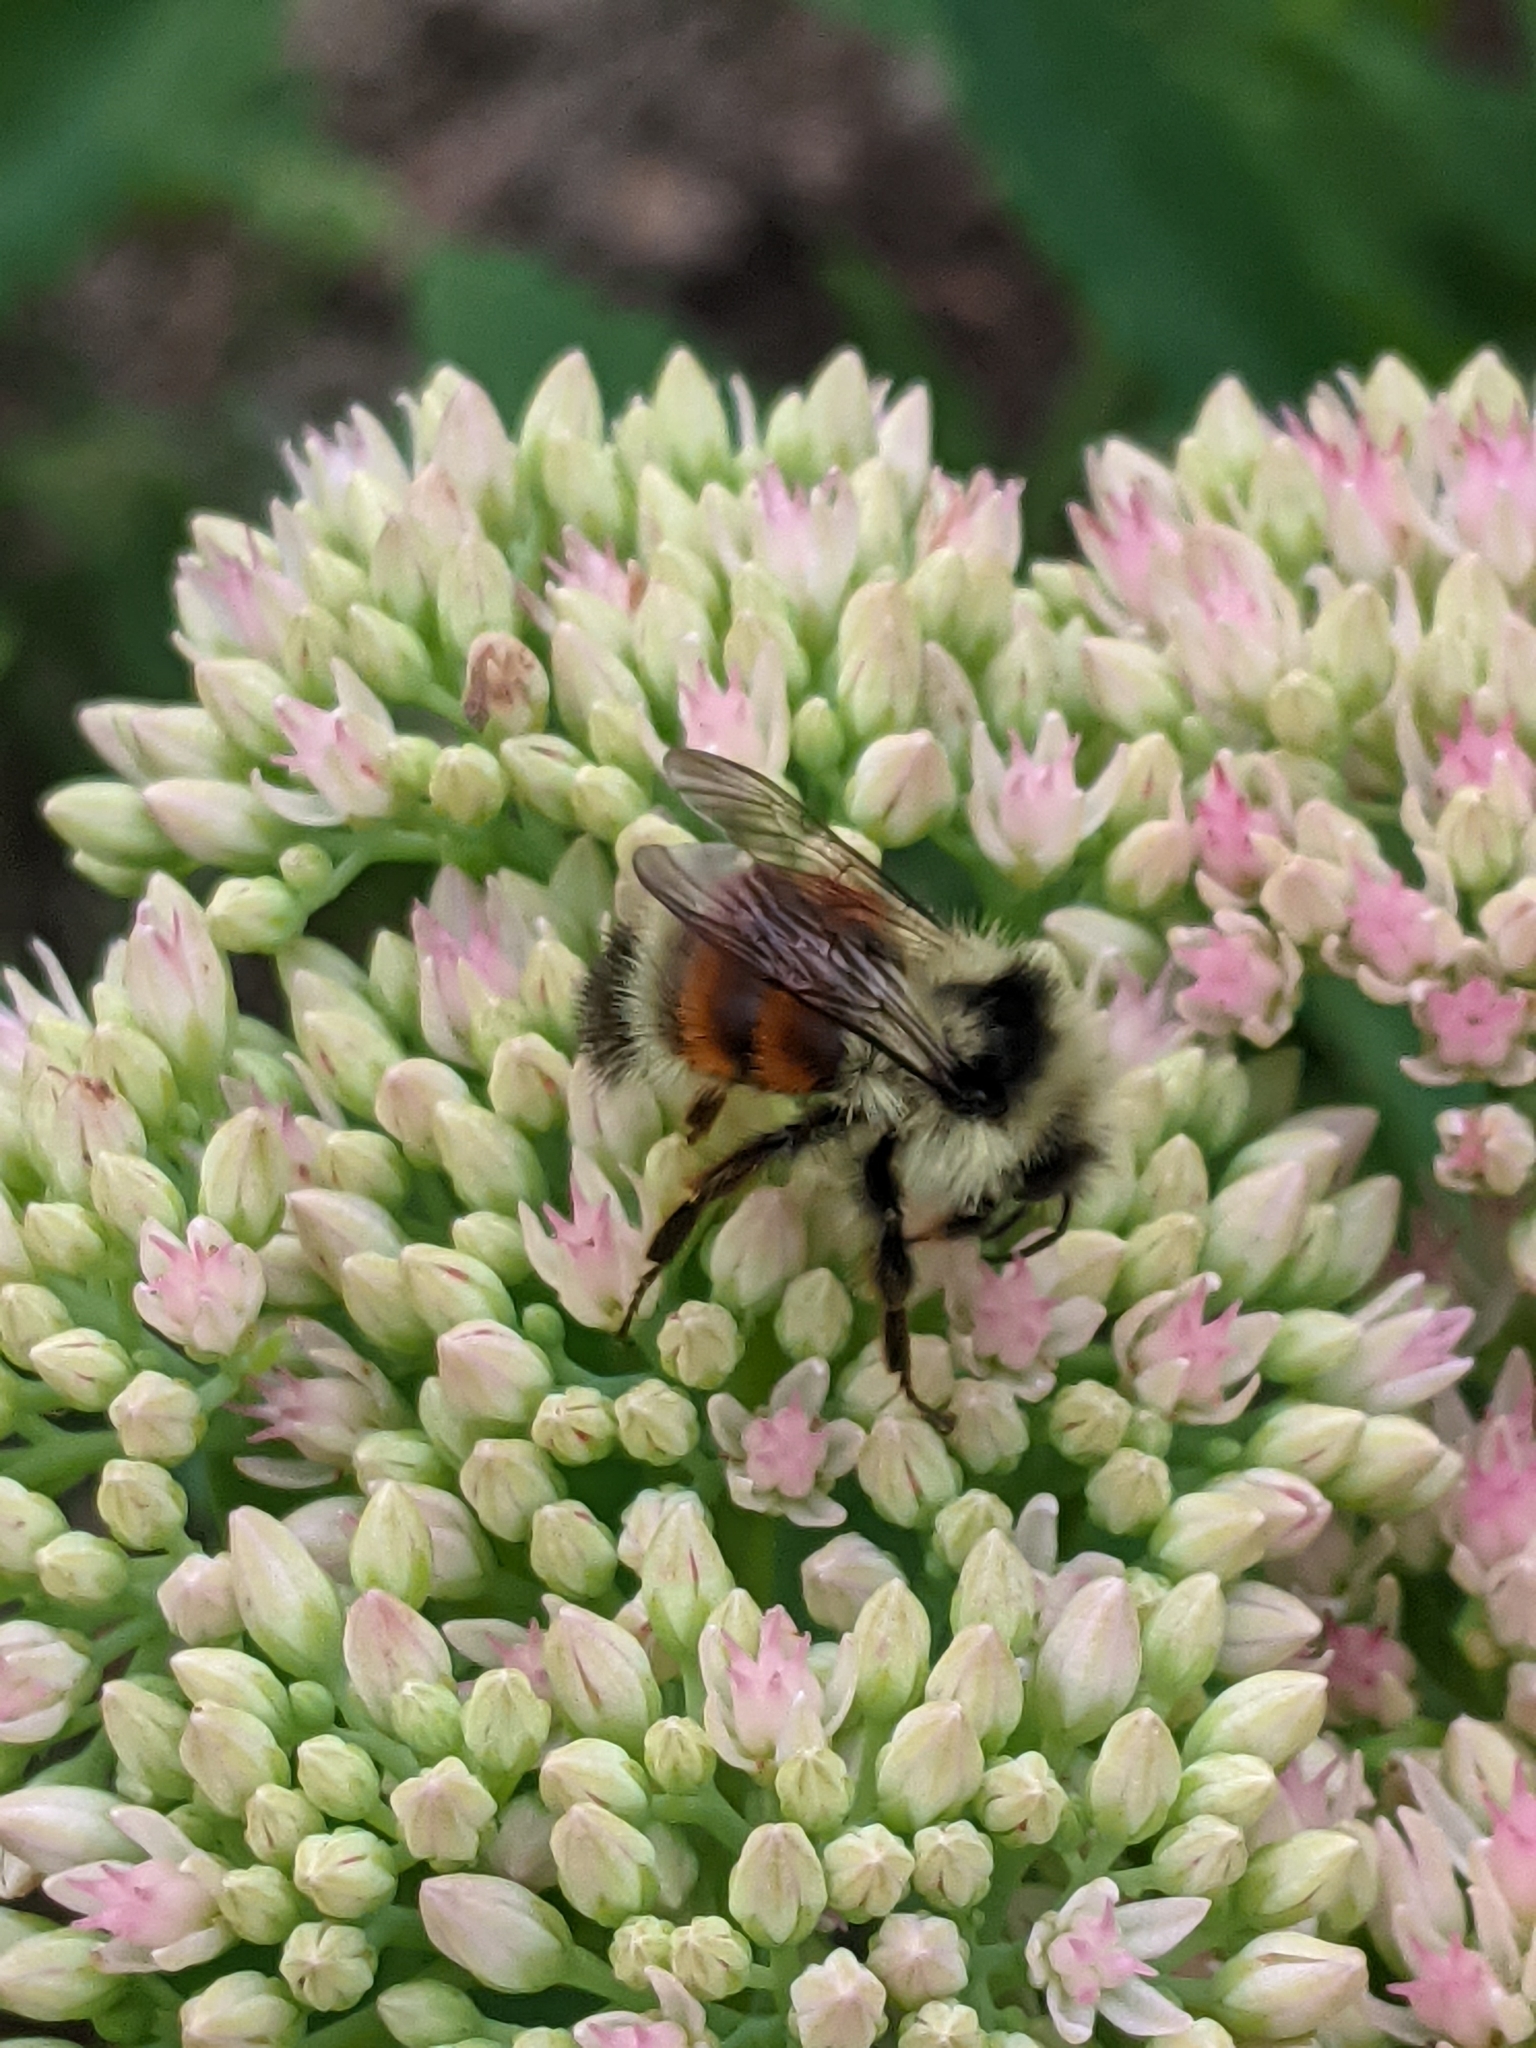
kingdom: Animalia
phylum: Arthropoda
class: Insecta
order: Hymenoptera
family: Apidae
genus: Bombus
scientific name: Bombus ternarius
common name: Tri-colored bumble bee
